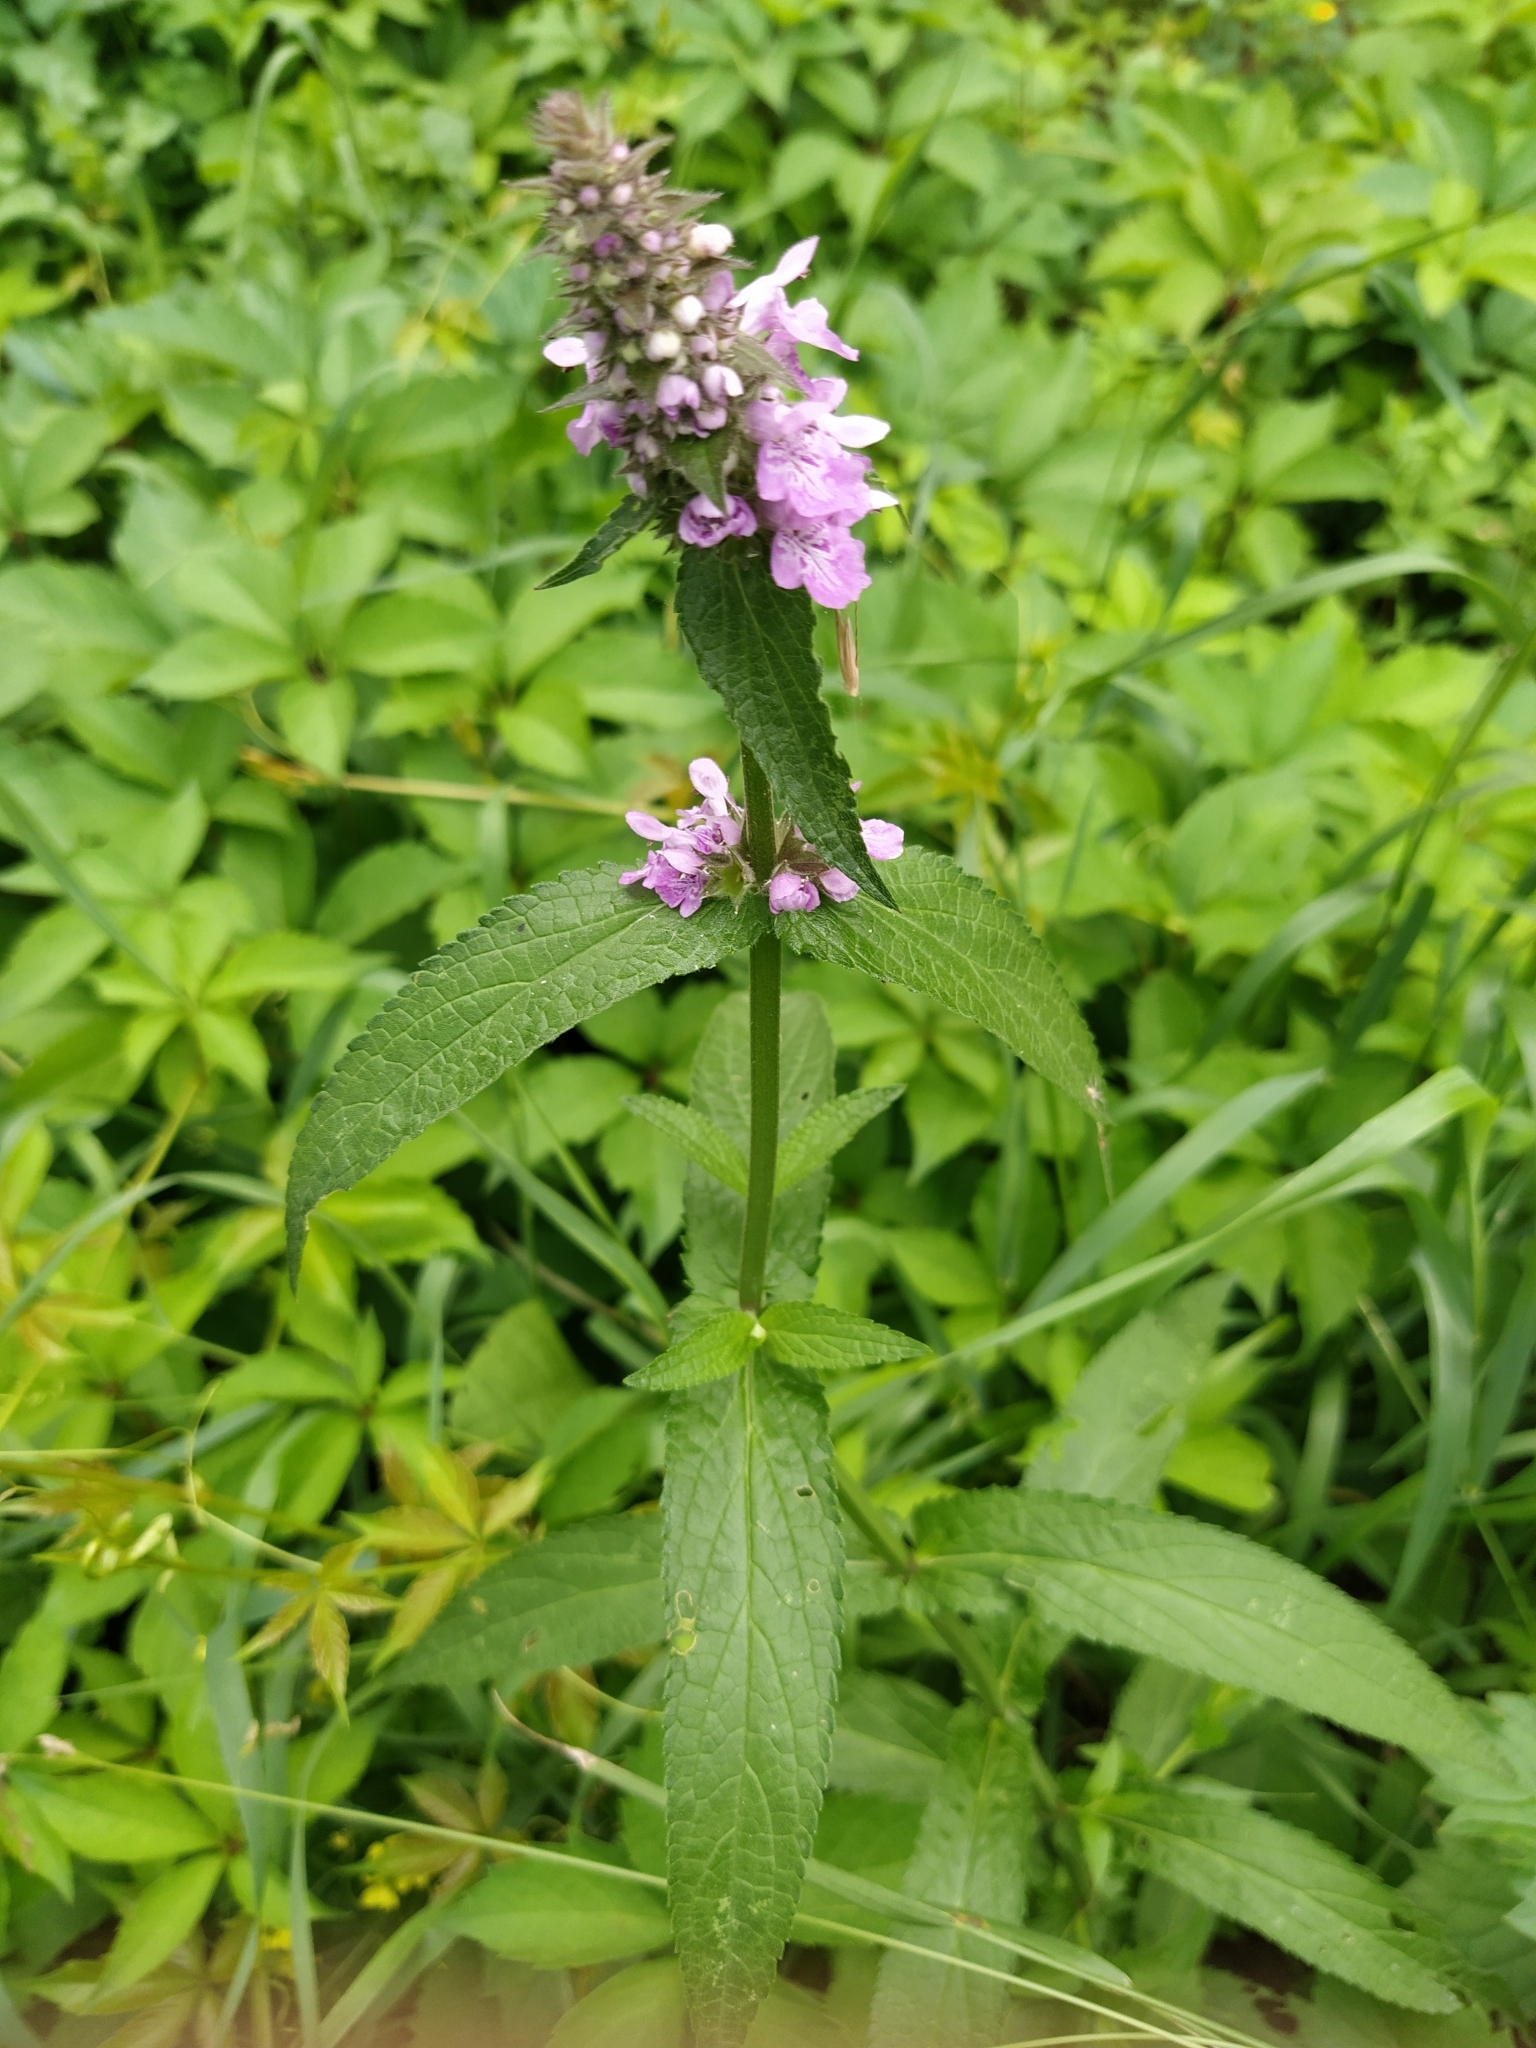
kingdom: Plantae
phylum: Tracheophyta
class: Magnoliopsida
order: Lamiales
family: Lamiaceae
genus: Stachys
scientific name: Stachys palustris
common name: Marsh woundwort
